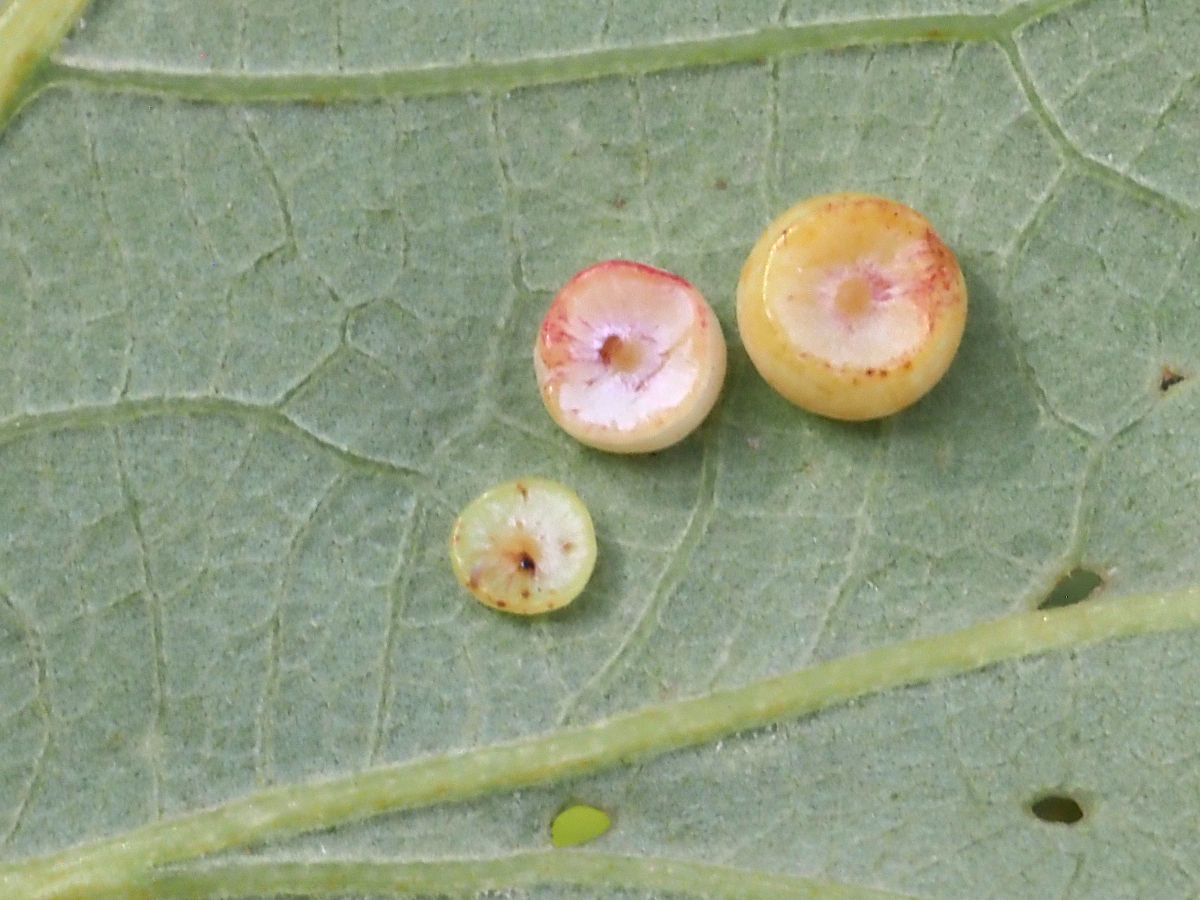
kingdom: Animalia
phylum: Arthropoda
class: Insecta
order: Hymenoptera
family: Cynipidae
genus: Phylloteras
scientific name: Phylloteras
